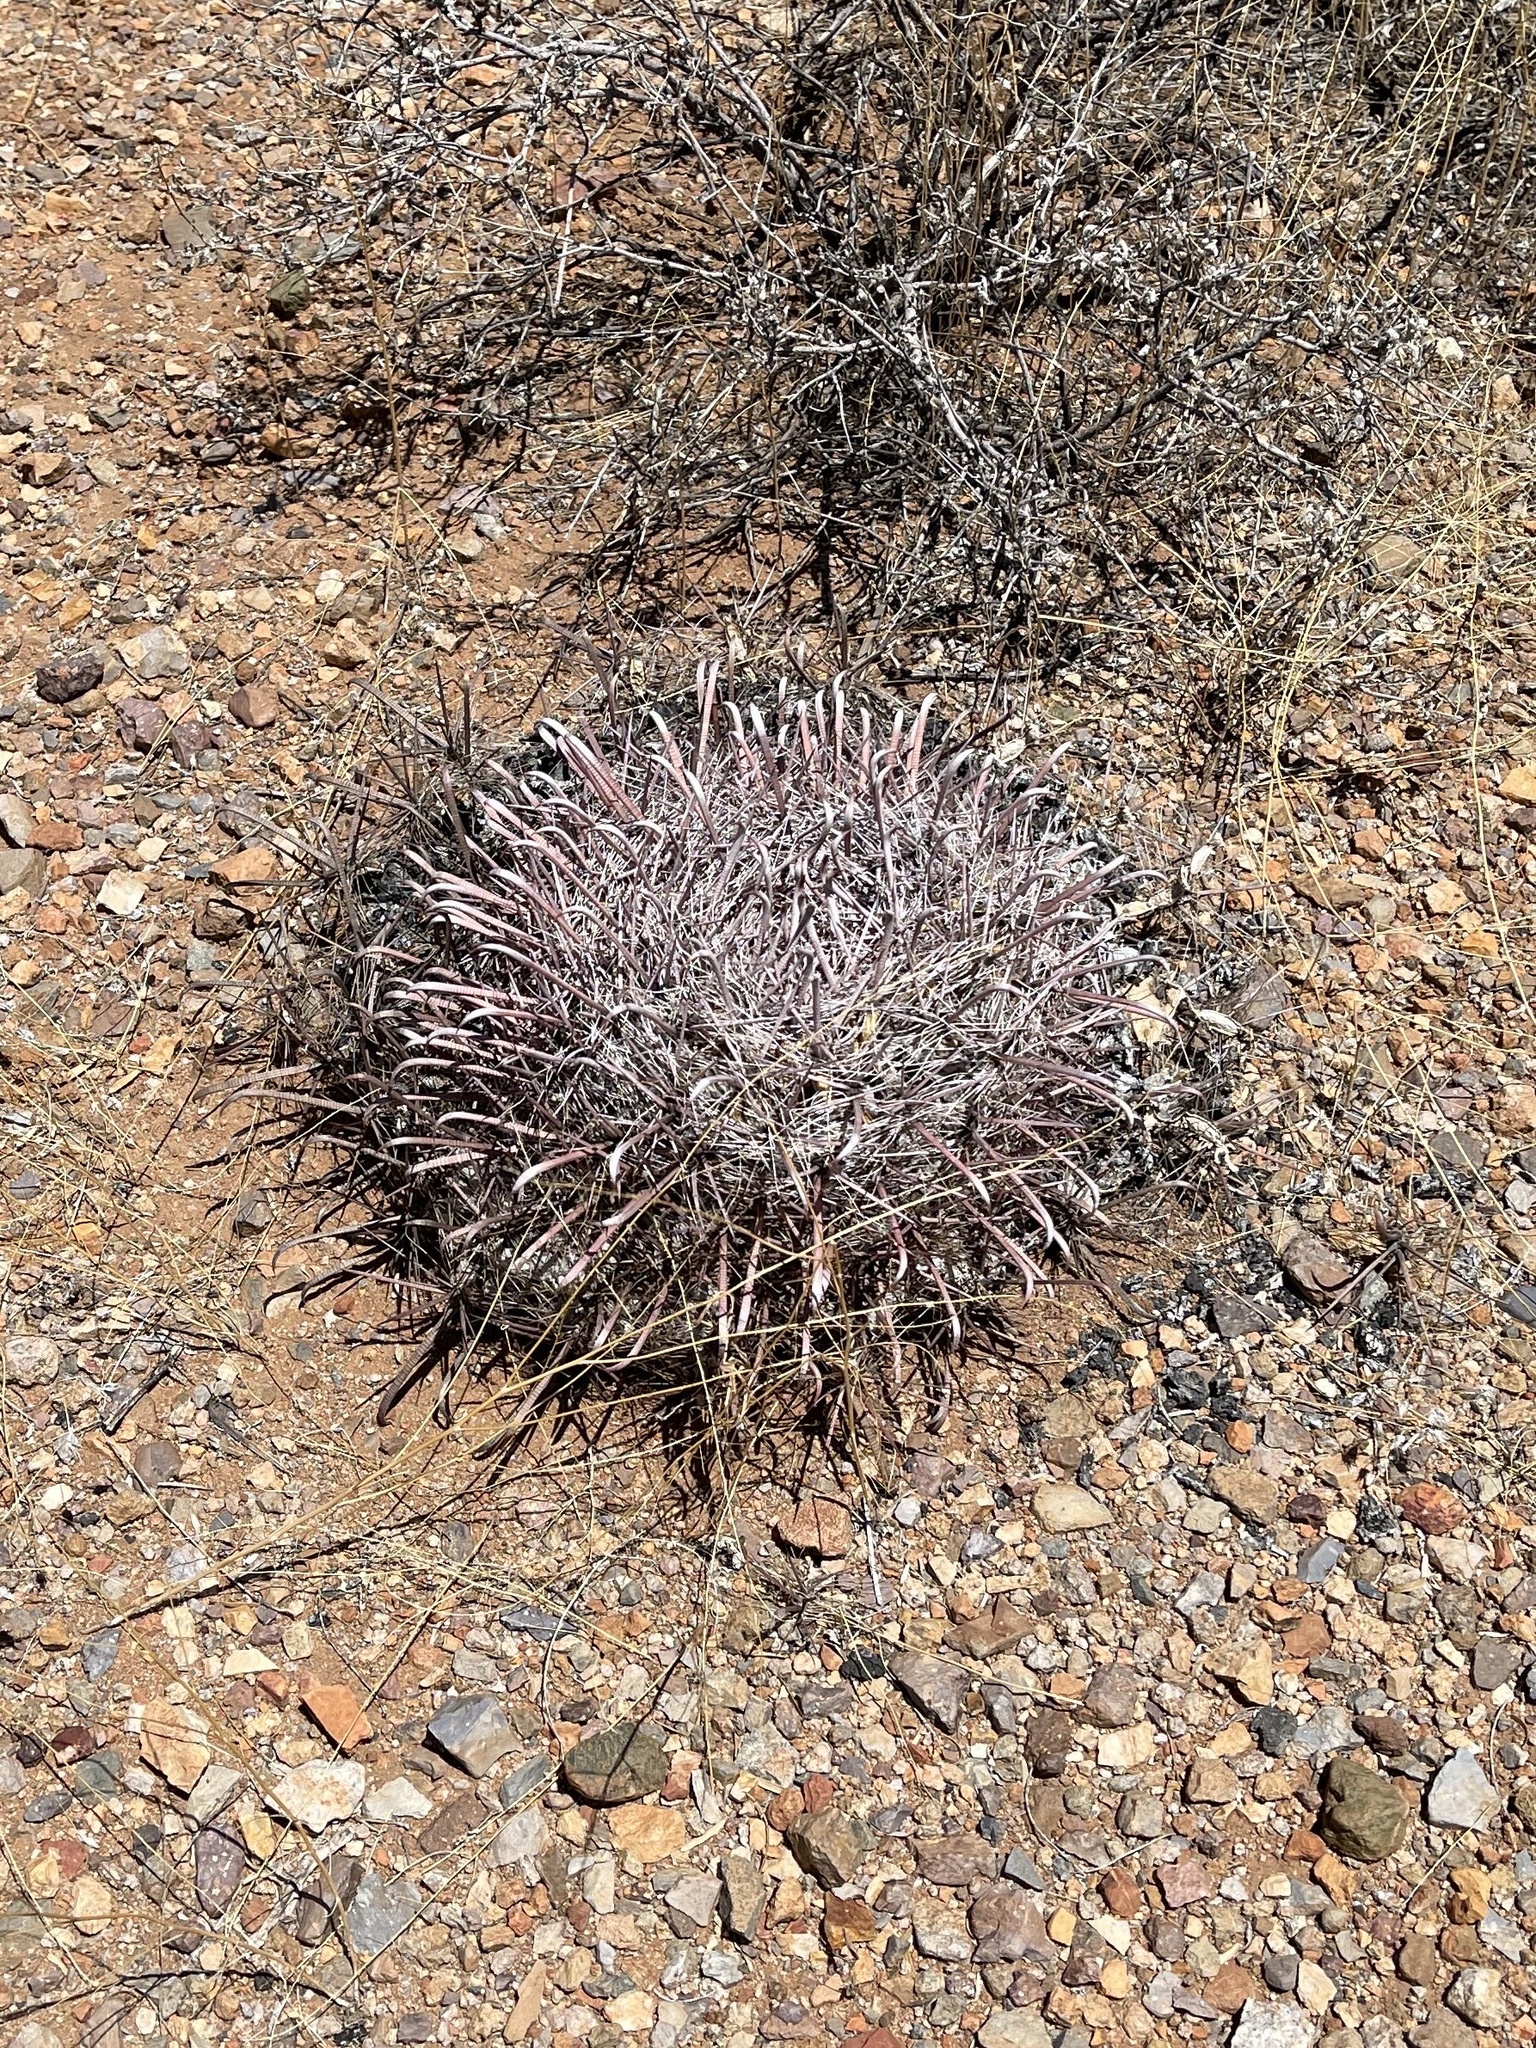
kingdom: Plantae
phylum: Tracheophyta
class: Magnoliopsida
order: Caryophyllales
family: Cactaceae
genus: Ferocactus
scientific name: Ferocactus wislizeni
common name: Candy barrel cactus
